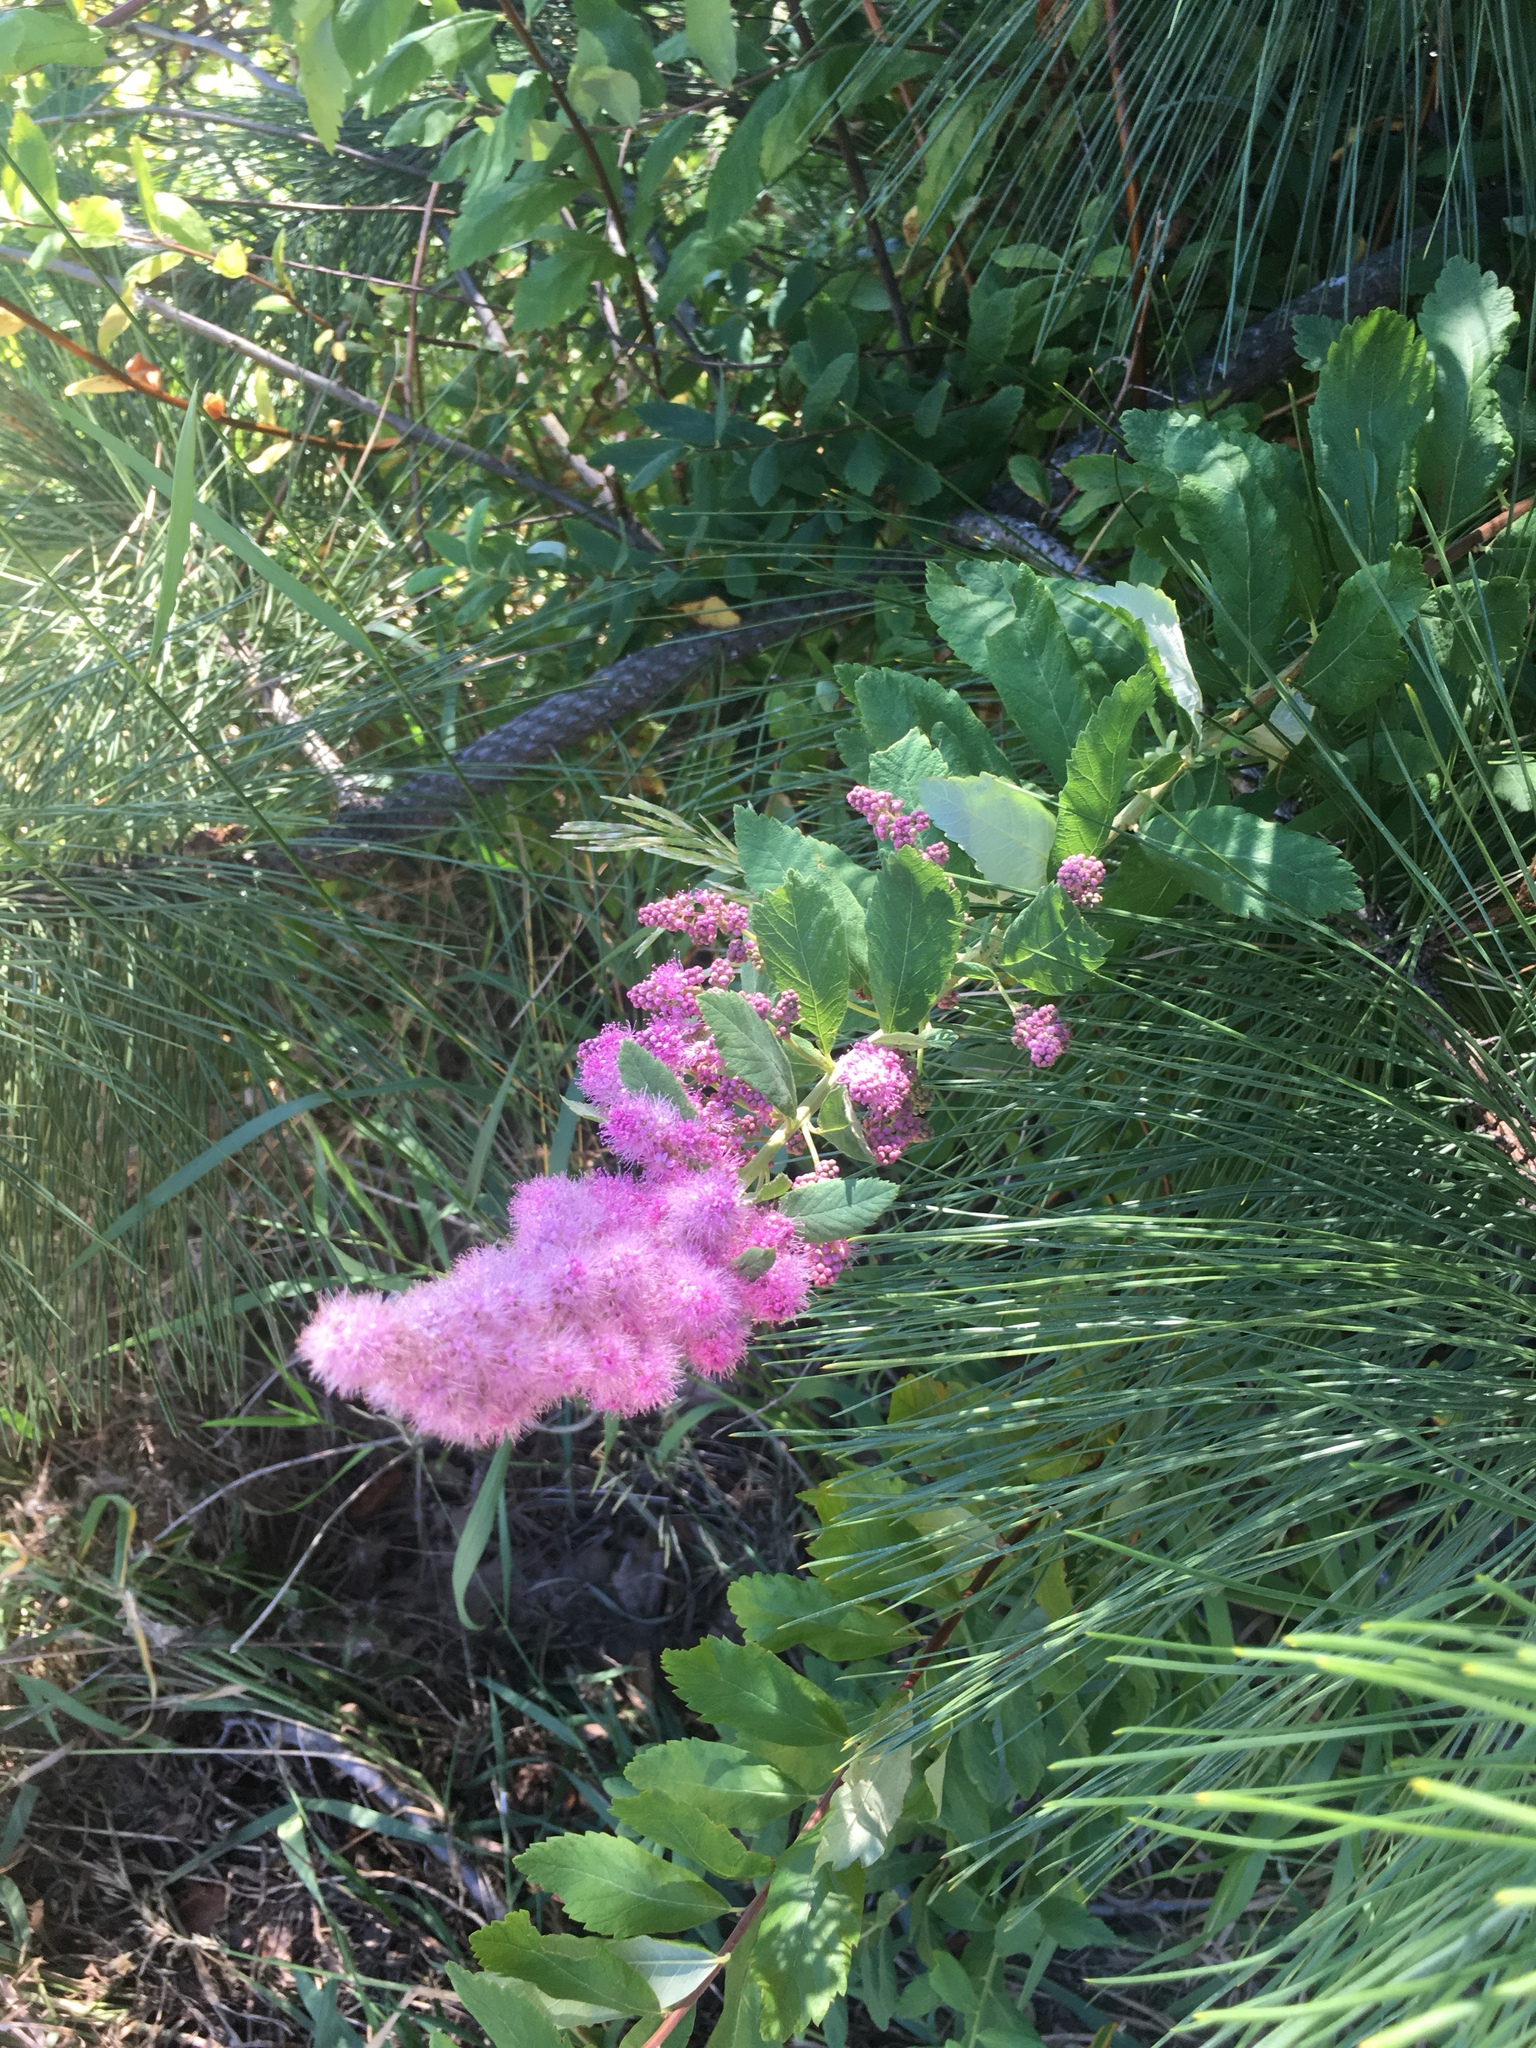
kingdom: Plantae
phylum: Tracheophyta
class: Magnoliopsida
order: Rosales
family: Rosaceae
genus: Spiraea
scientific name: Spiraea douglasii
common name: Steeplebush
